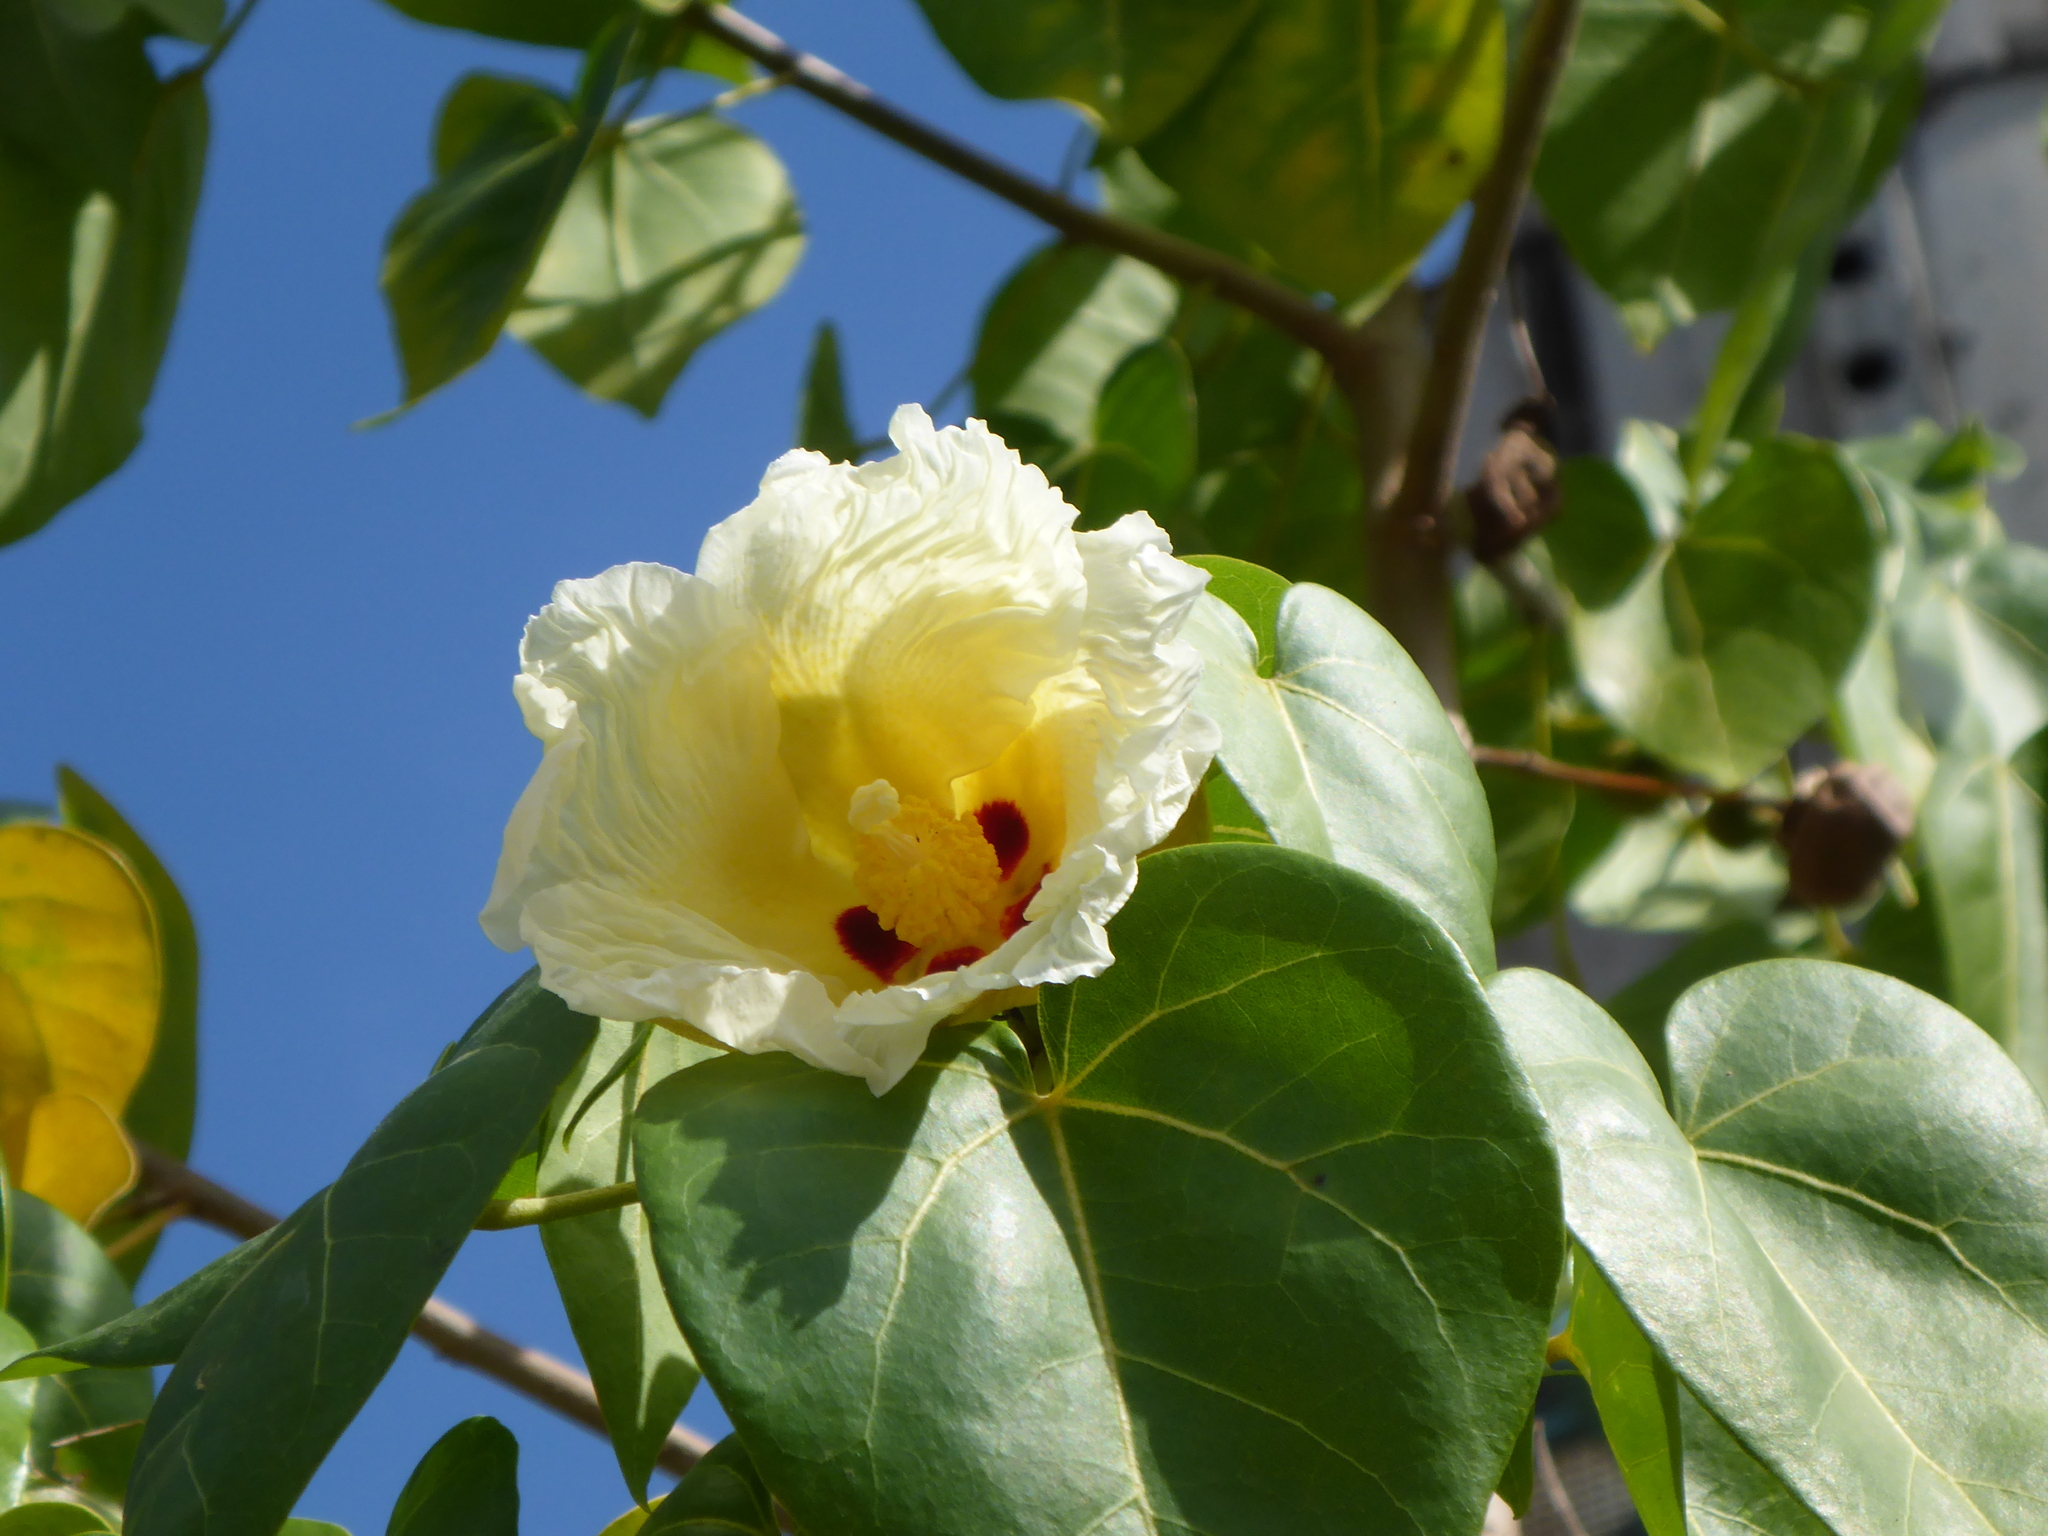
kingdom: Plantae
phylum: Tracheophyta
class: Magnoliopsida
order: Malvales
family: Malvaceae
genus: Thespesia
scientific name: Thespesia populnea
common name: Seaside mahoe
